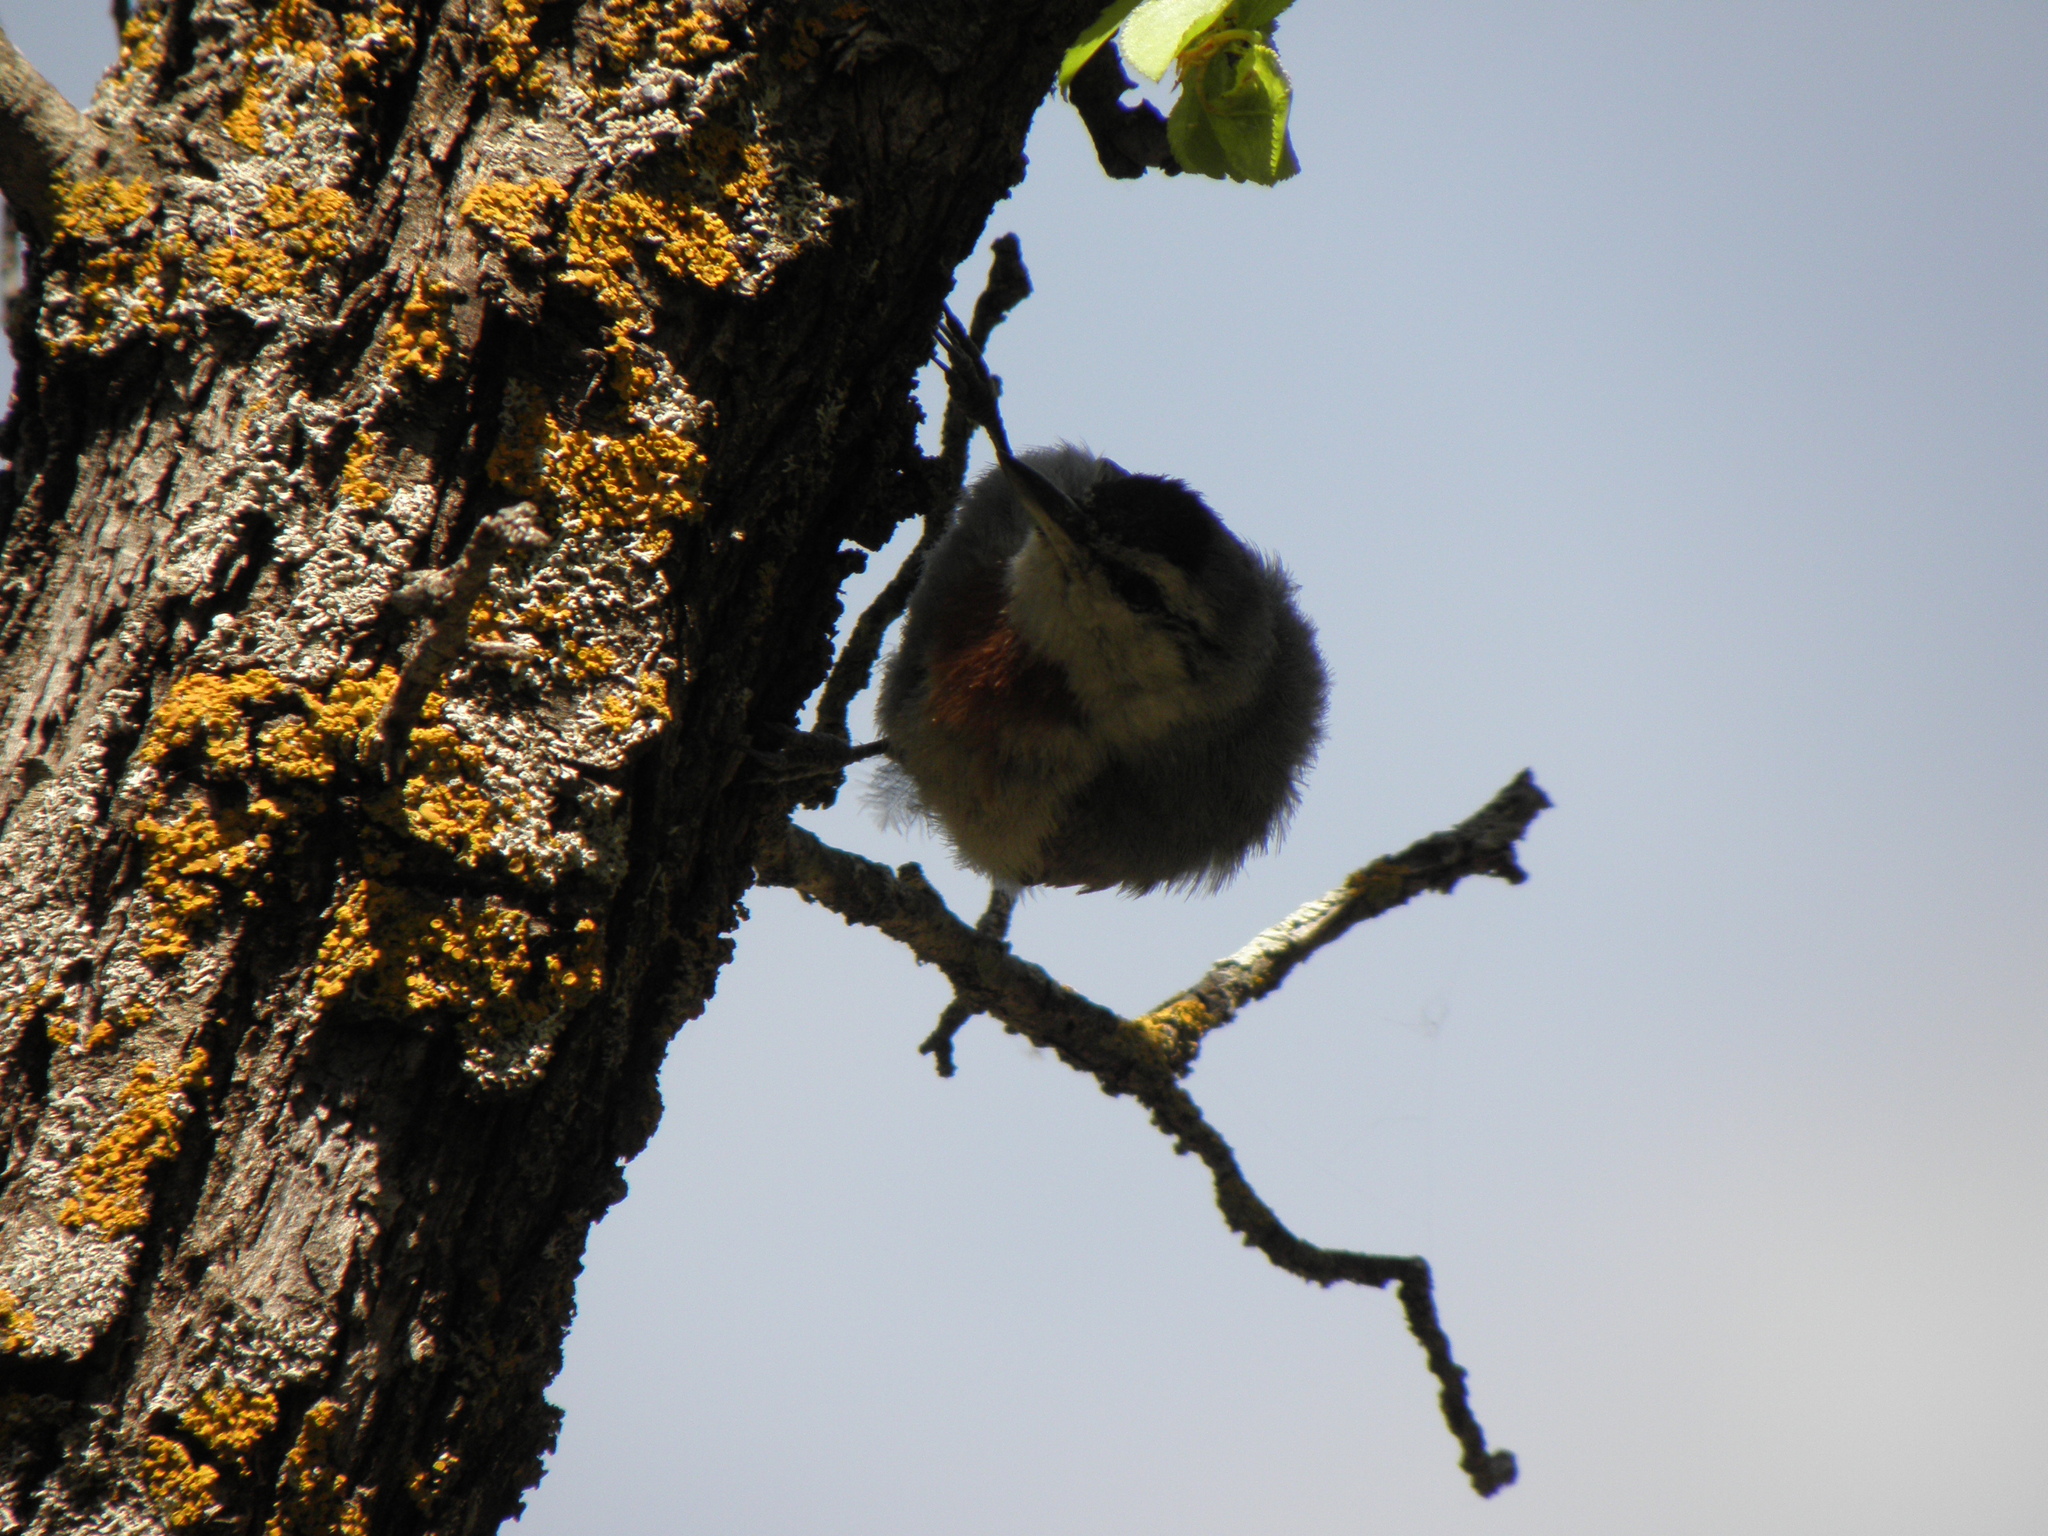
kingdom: Animalia
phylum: Chordata
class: Aves
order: Passeriformes
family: Sittidae
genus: Sitta
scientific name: Sitta krueperi
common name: Krüper's nuthatch
